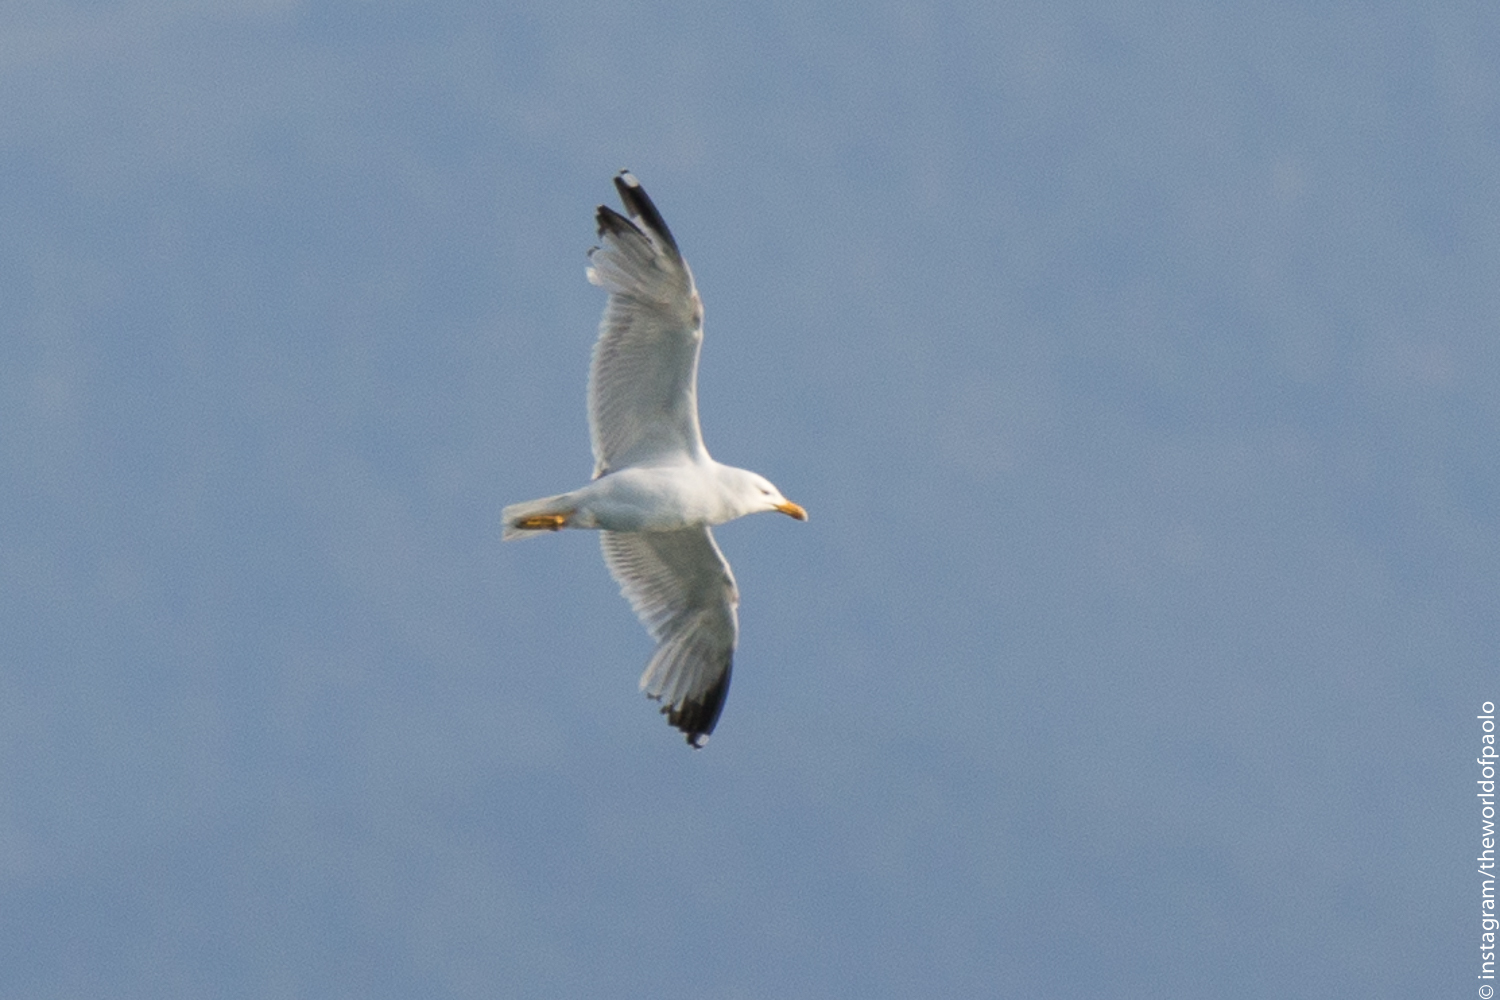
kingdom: Animalia
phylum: Chordata
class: Aves
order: Charadriiformes
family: Laridae
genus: Larus
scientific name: Larus michahellis
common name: Yellow-legged gull
